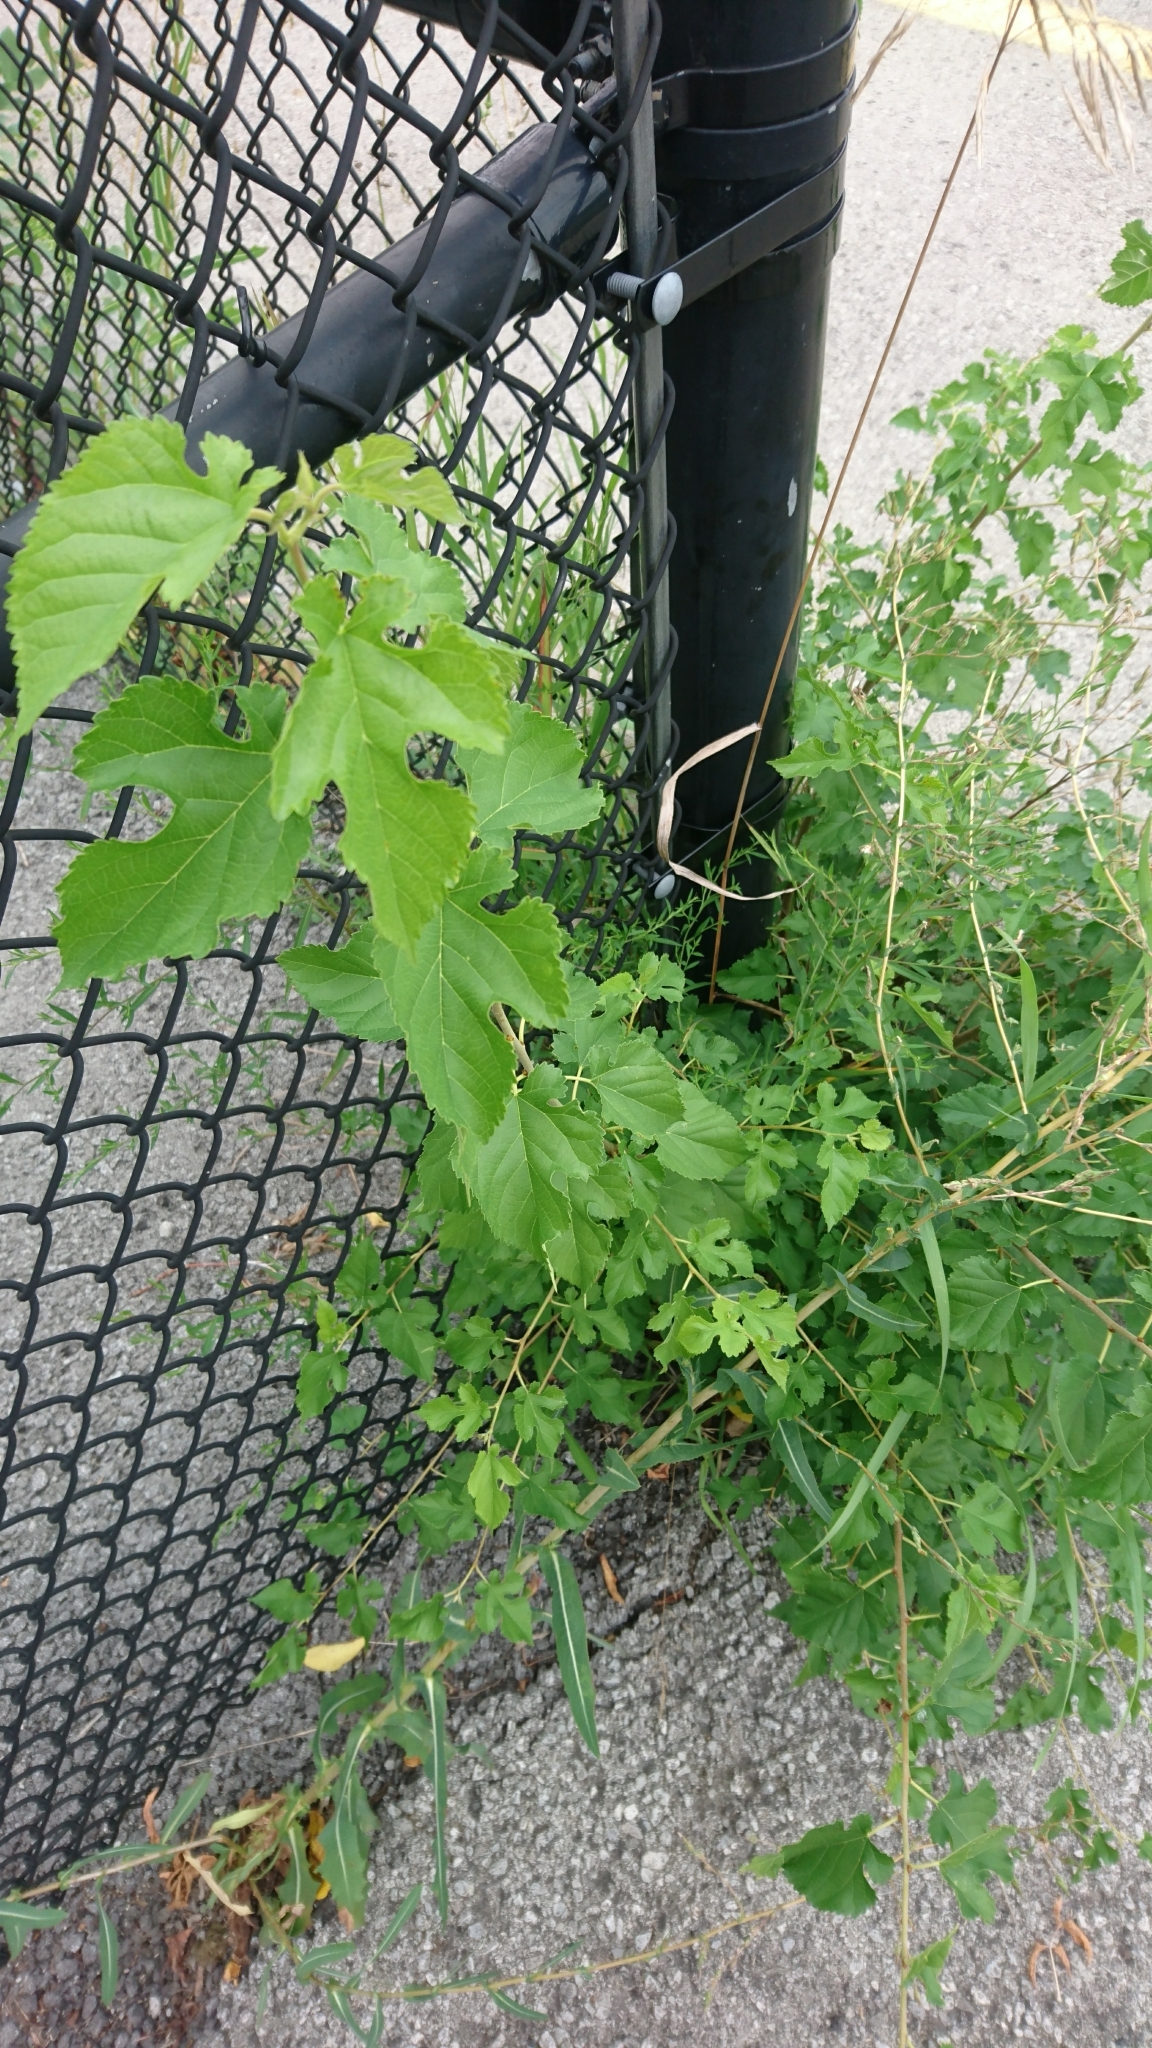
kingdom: Plantae
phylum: Tracheophyta
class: Magnoliopsida
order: Rosales
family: Moraceae
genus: Morus
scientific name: Morus alba
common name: White mulberry
